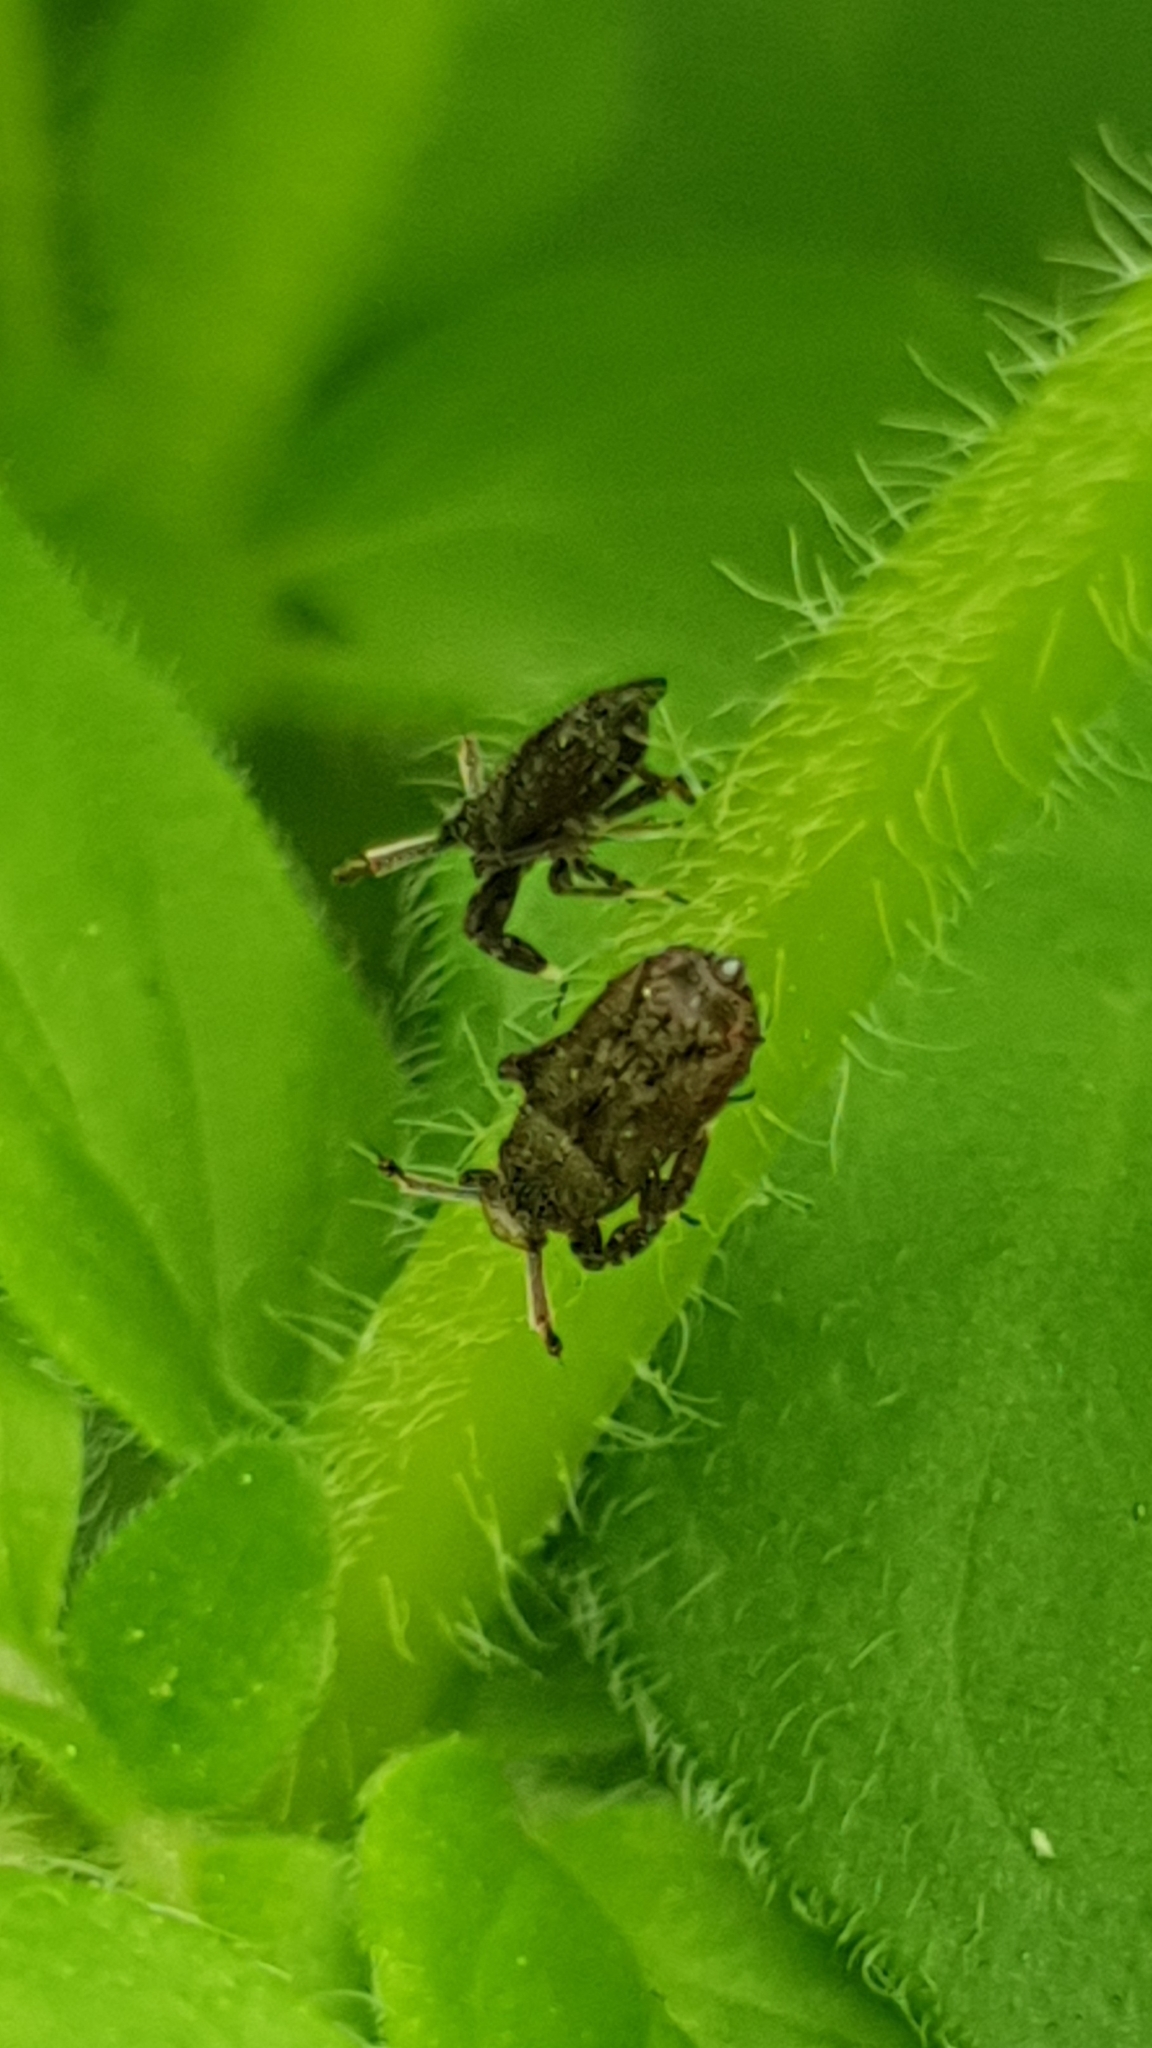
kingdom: Animalia
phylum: Arthropoda
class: Insecta
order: Hemiptera
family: Delphacidae
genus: Asiraca
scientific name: Asiraca clavicornis
